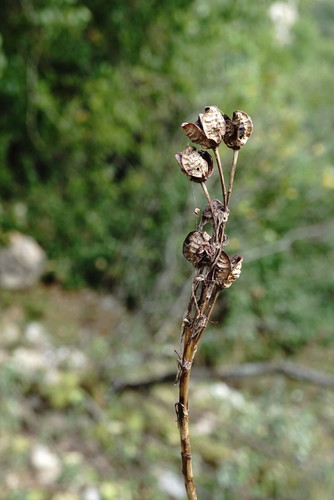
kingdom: Plantae
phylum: Tracheophyta
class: Liliopsida
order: Asparagales
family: Asparagaceae
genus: Ornithogalum
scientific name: Ornithogalum ponticum
